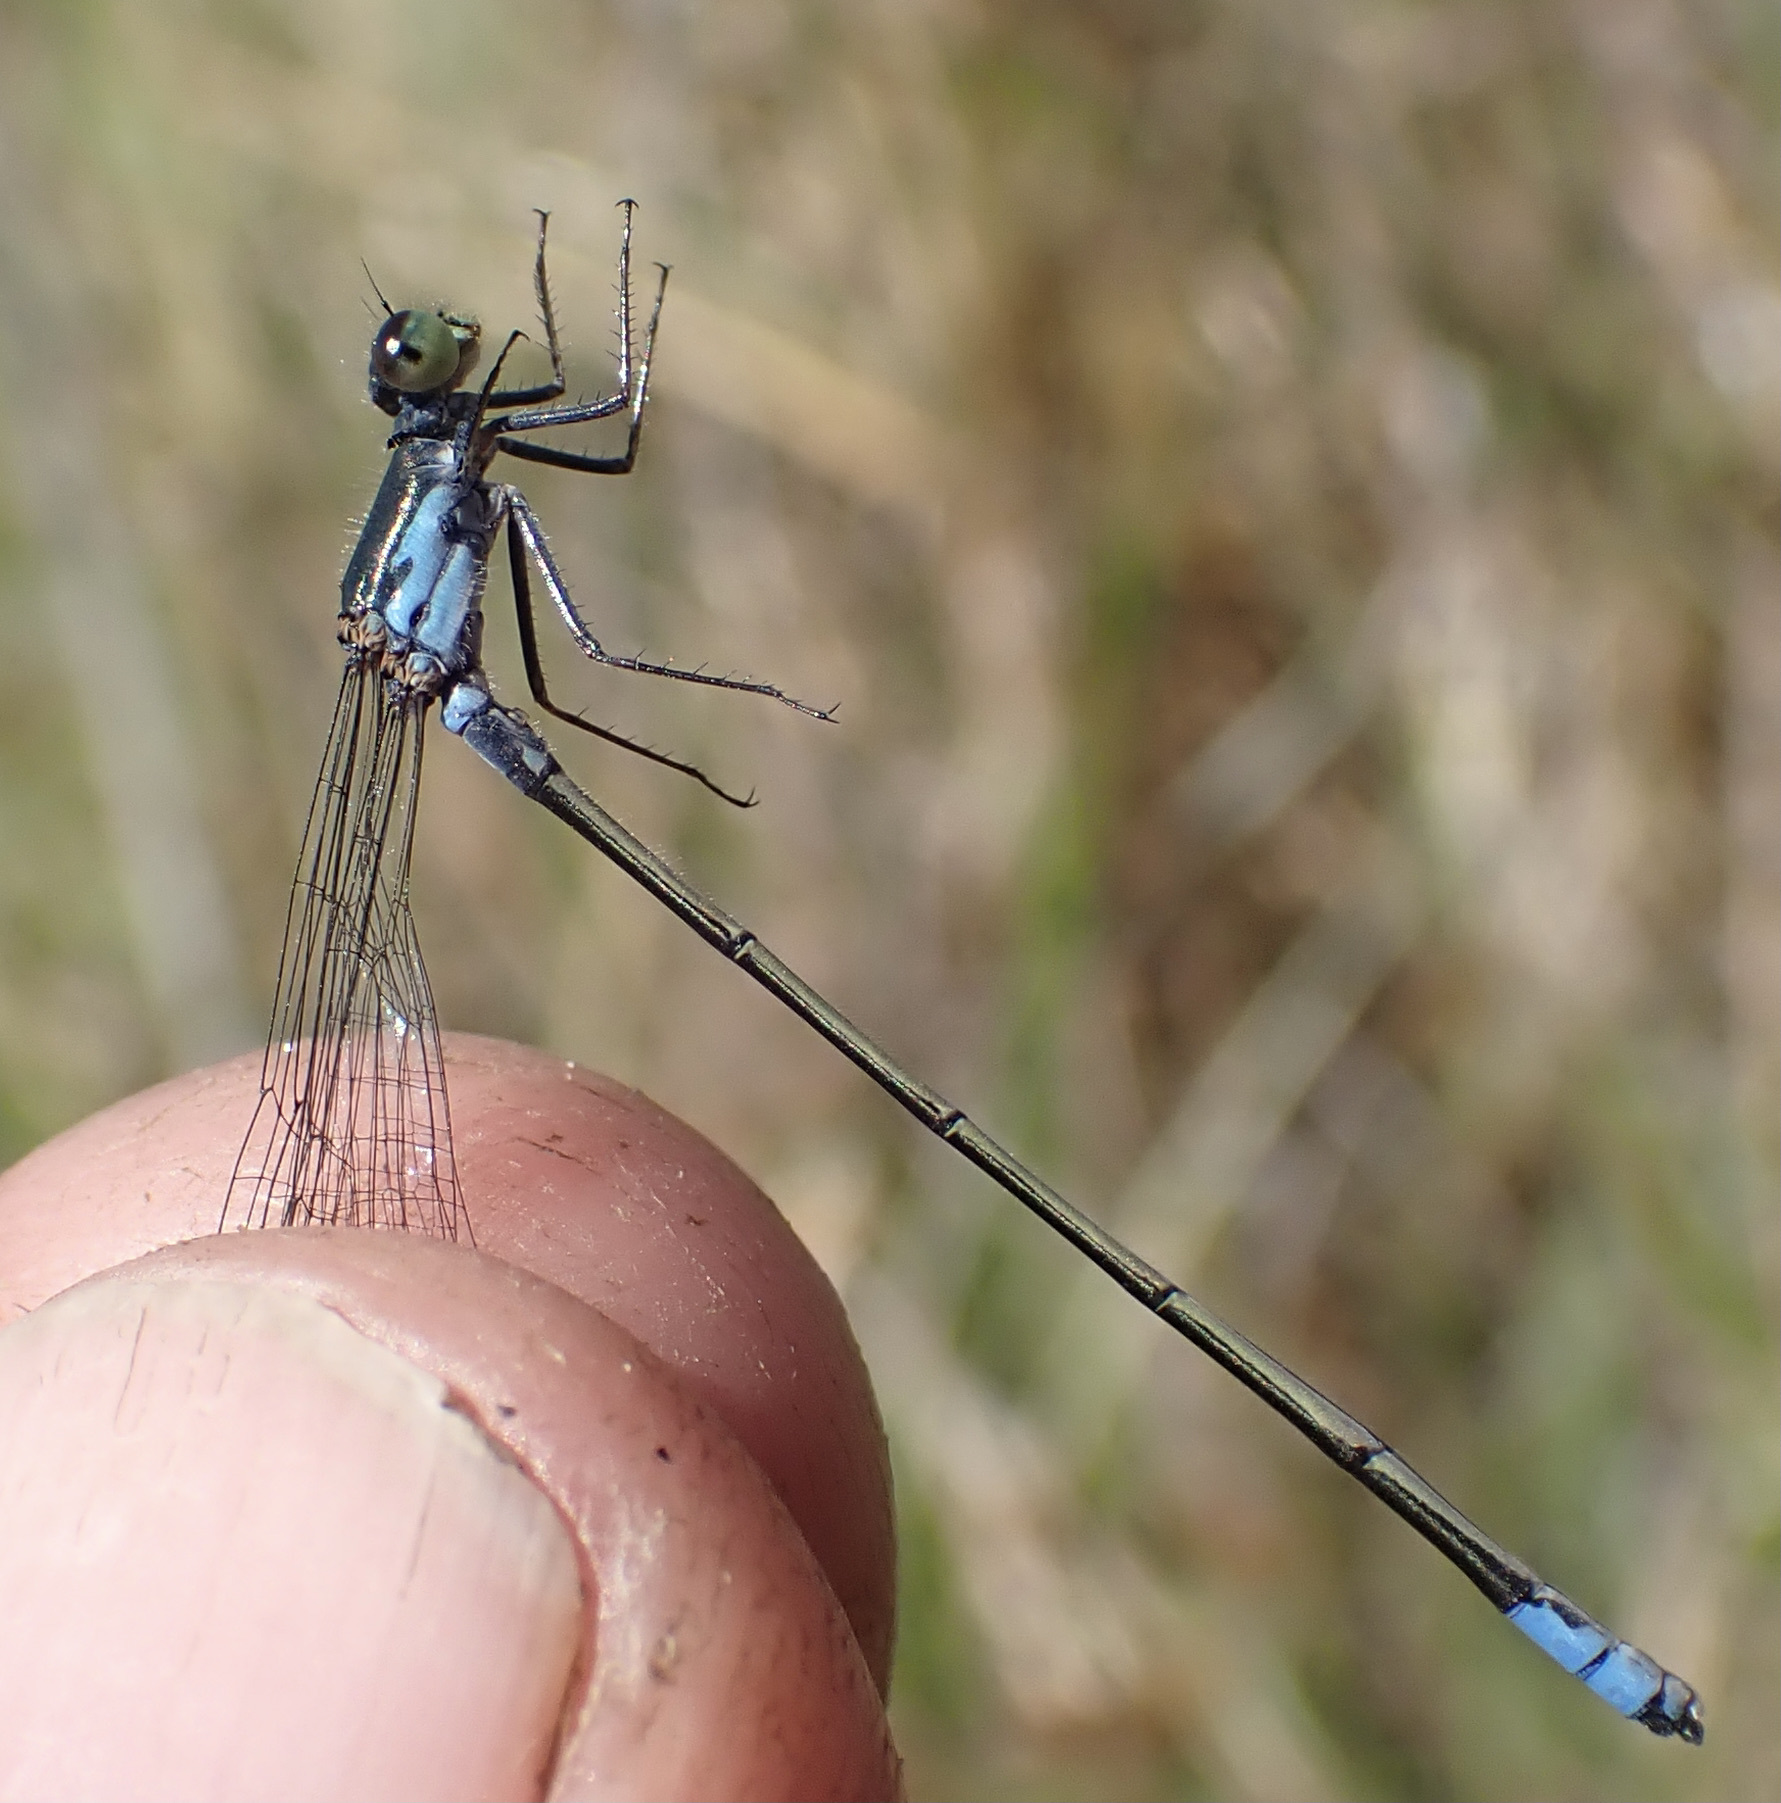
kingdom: Animalia
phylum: Arthropoda
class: Insecta
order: Odonata
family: Coenagrionidae
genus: Pseudagrion
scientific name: Pseudagrion deningi
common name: Dening's sprite
